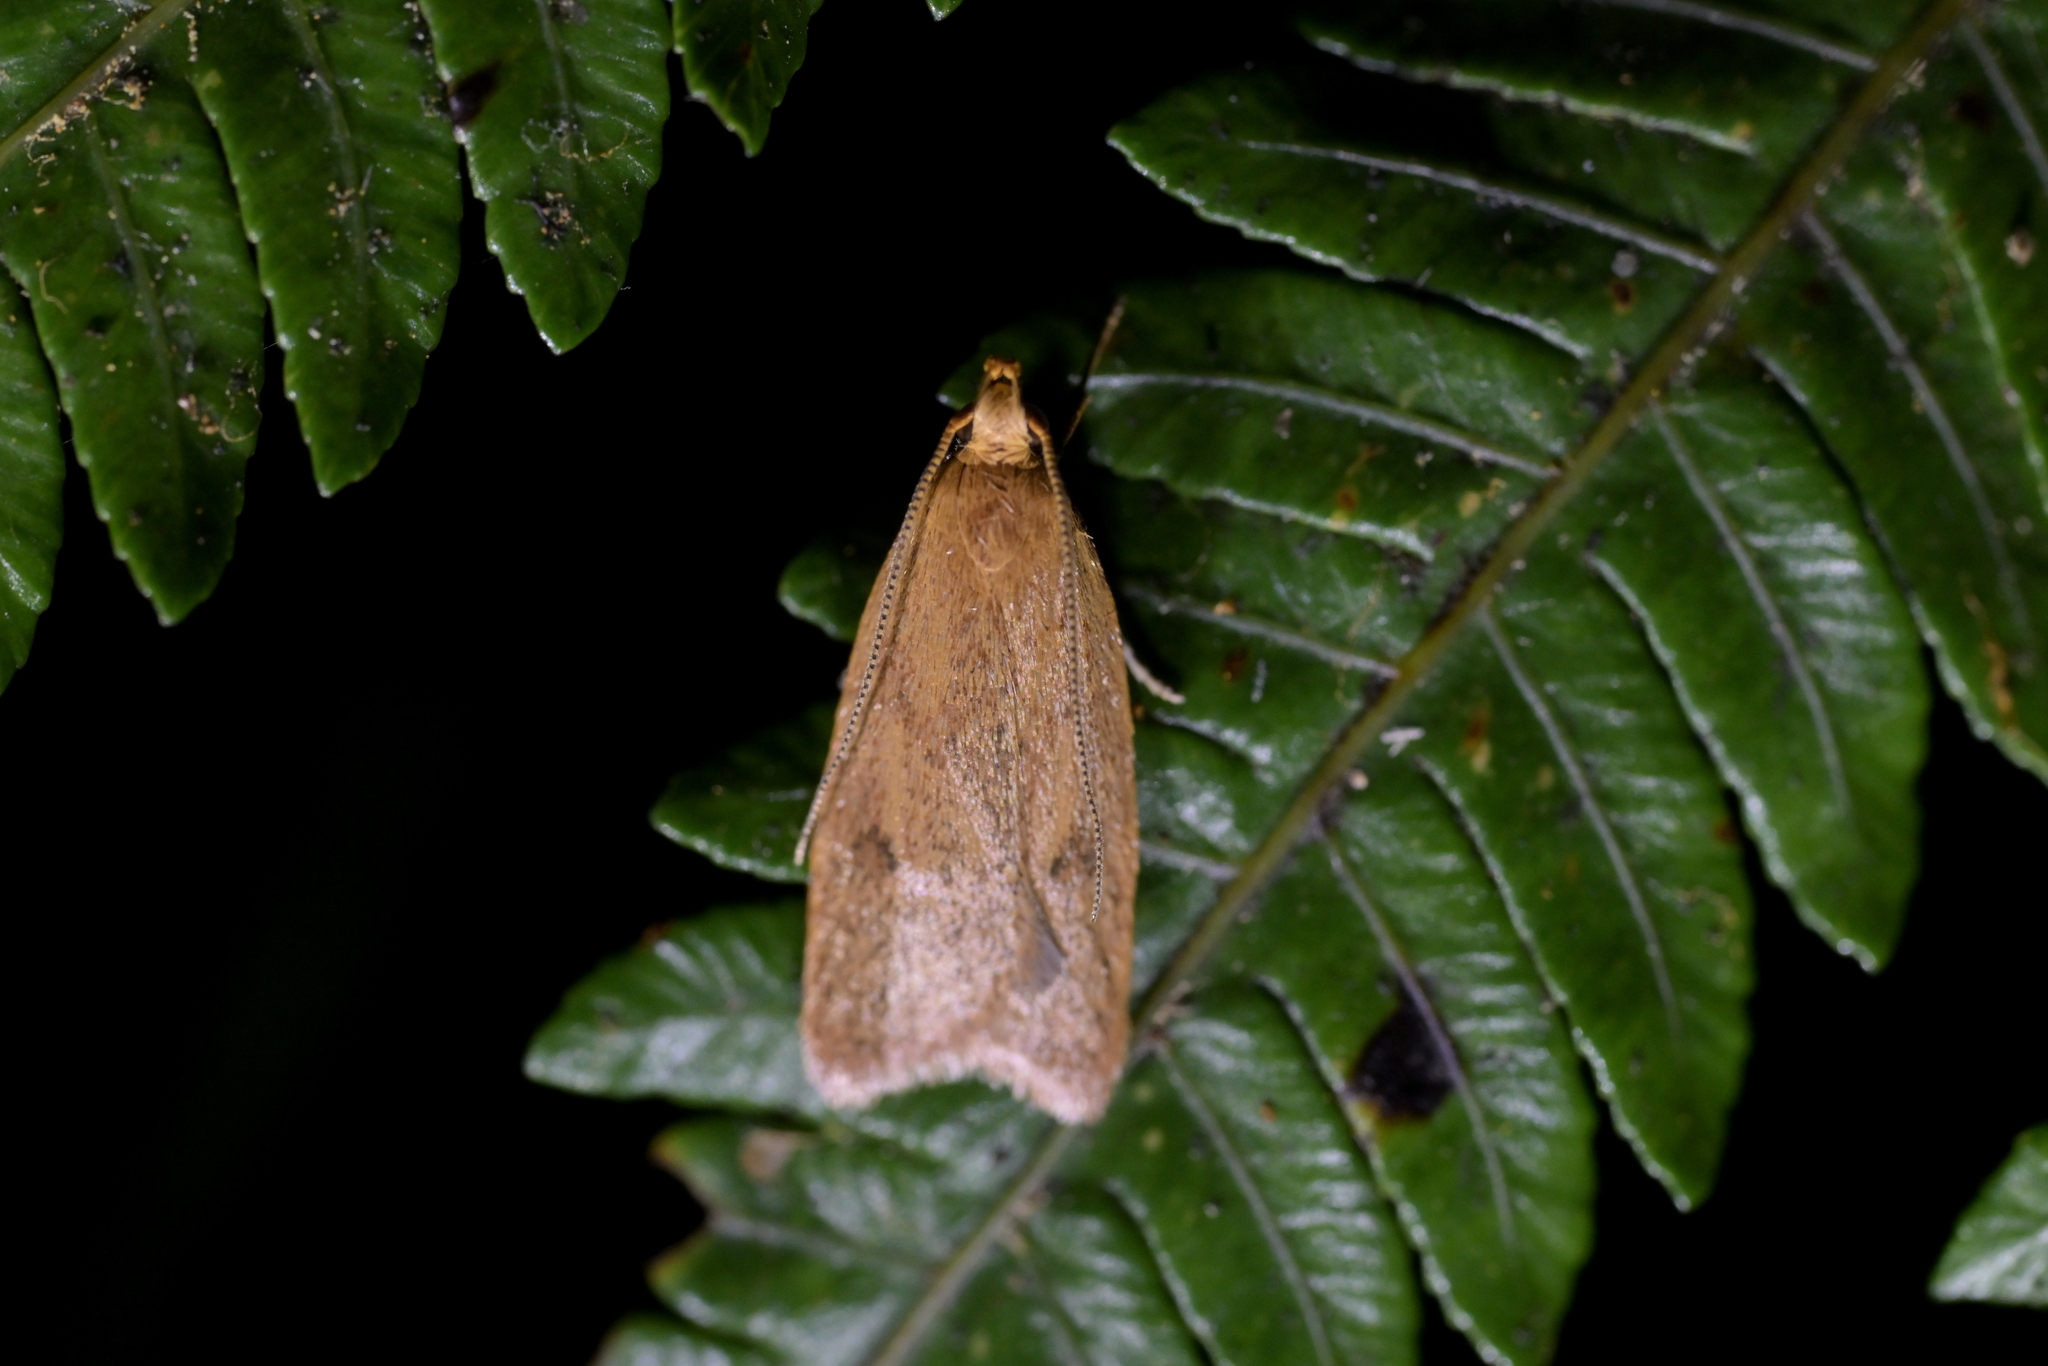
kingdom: Animalia
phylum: Arthropoda
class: Insecta
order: Lepidoptera
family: Oecophoridae
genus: Gymnobathra
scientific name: Gymnobathra sarcoxantha
